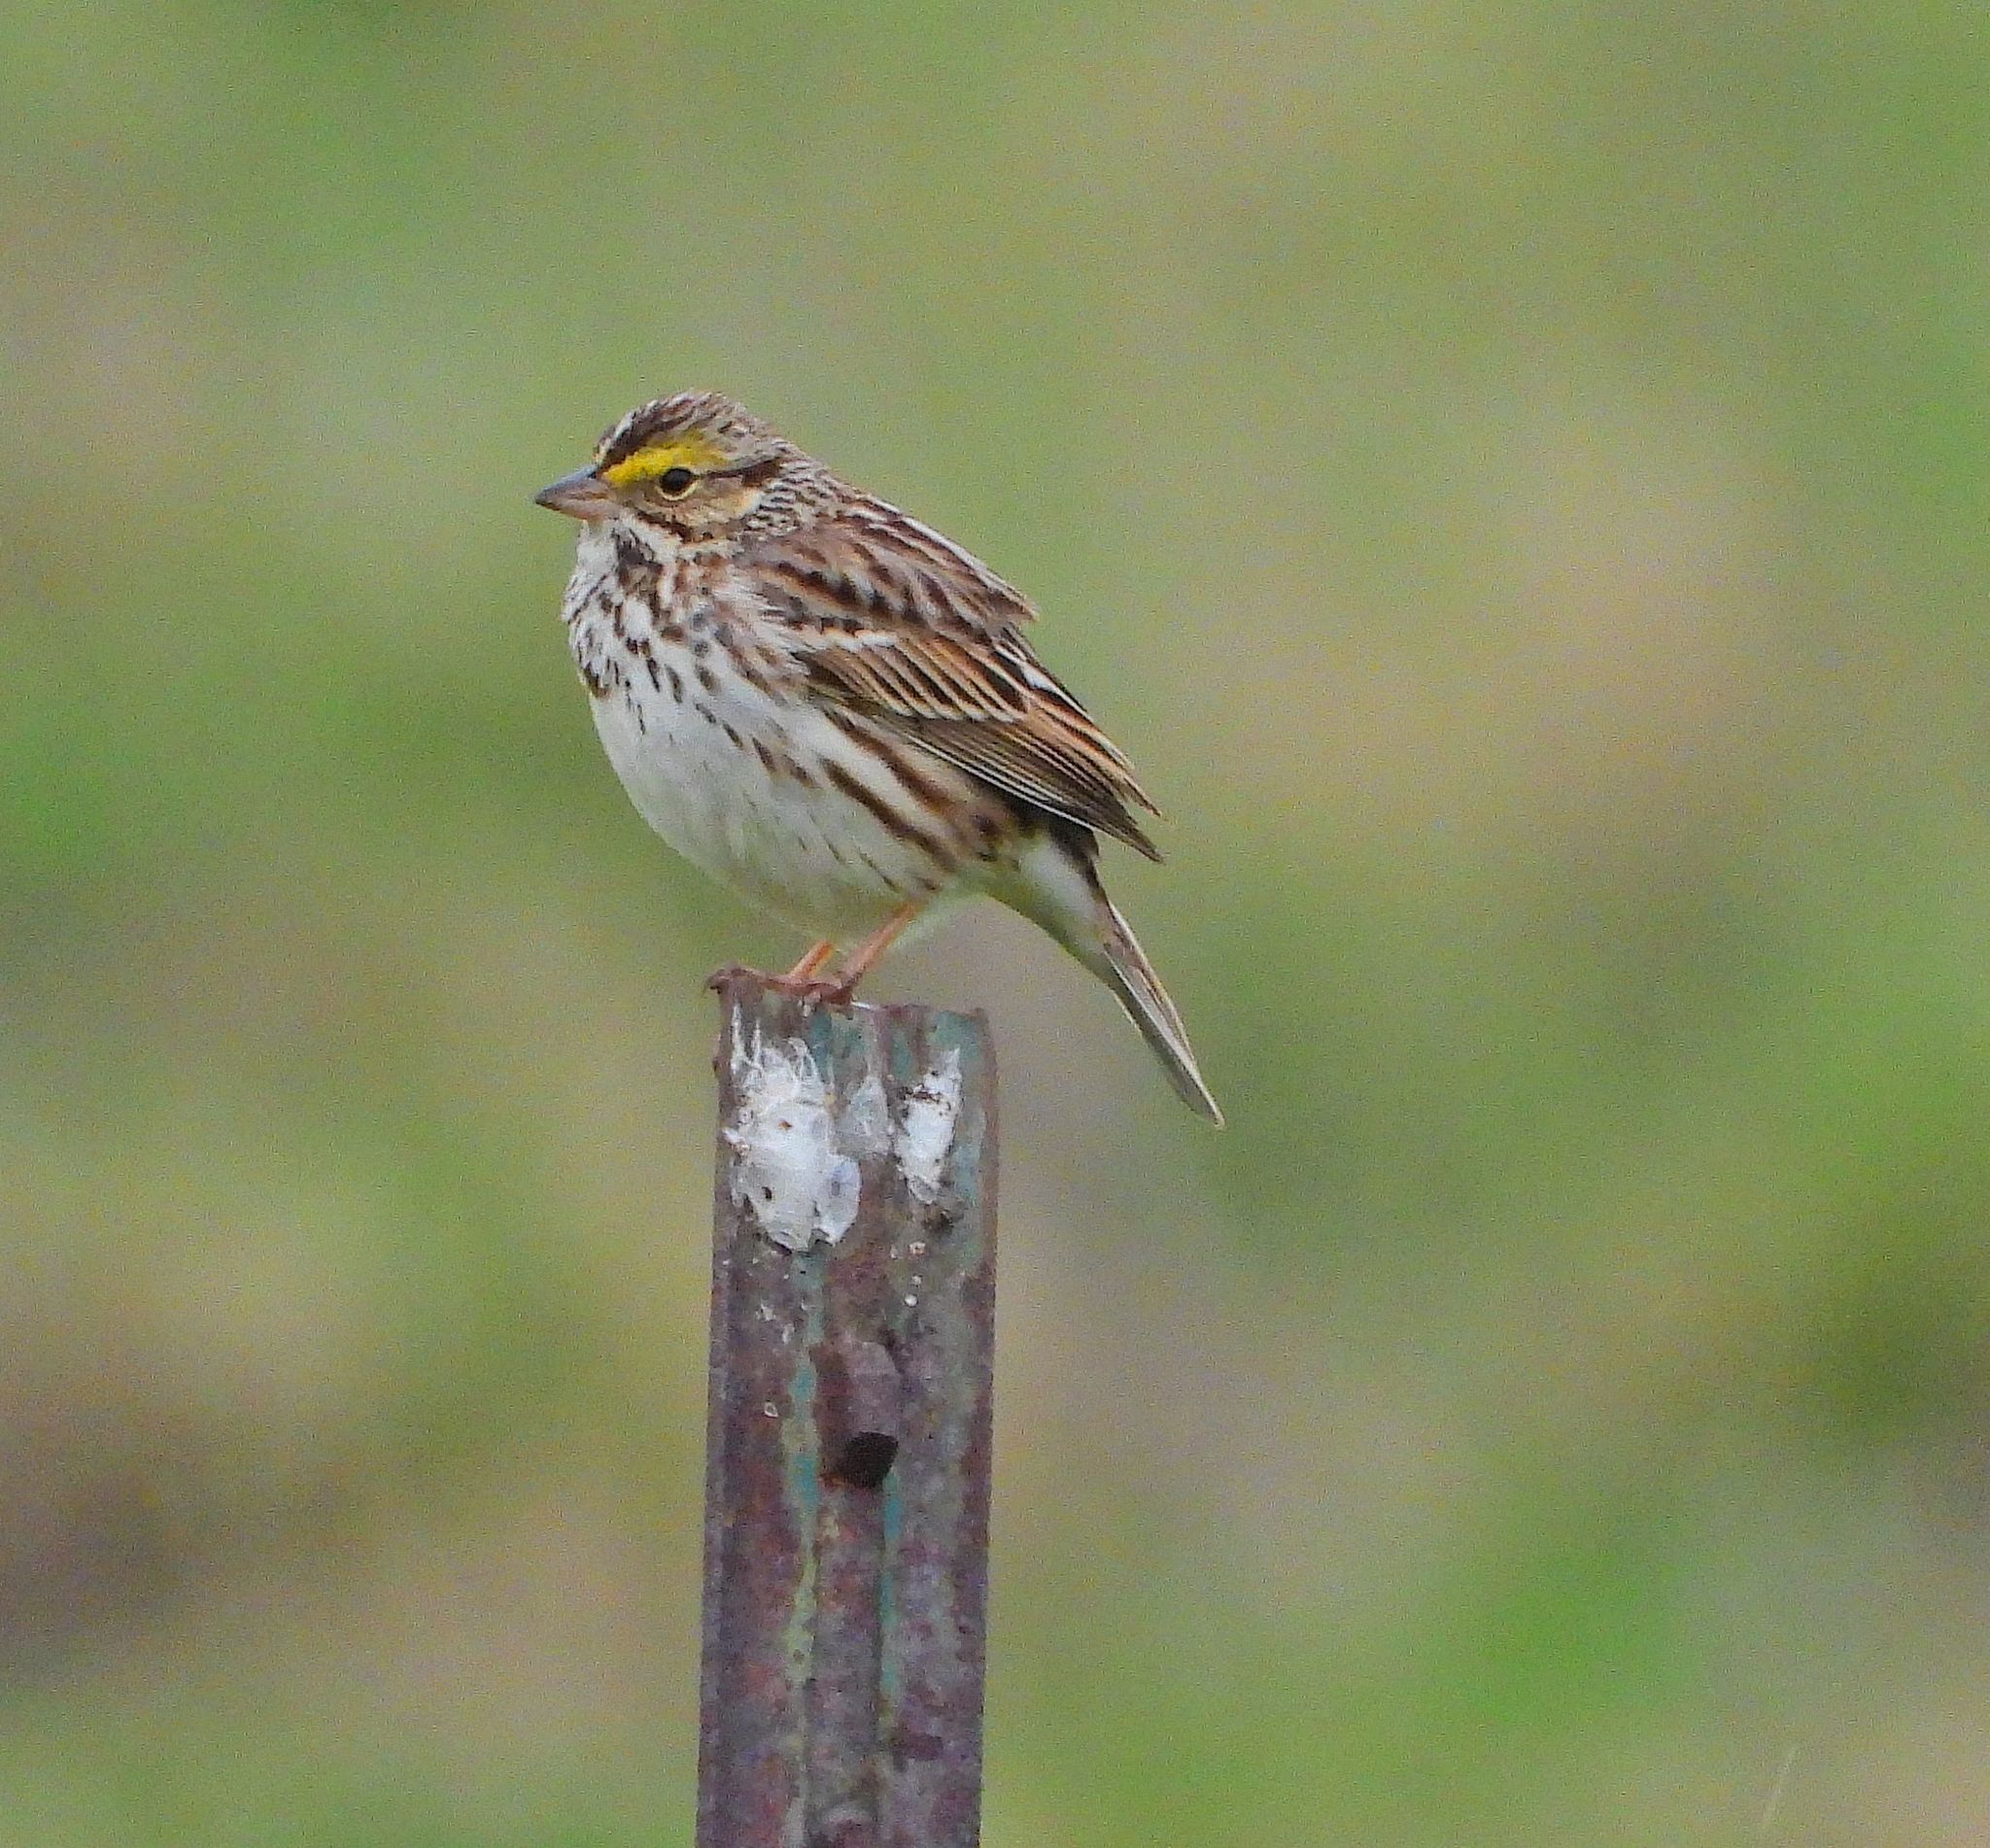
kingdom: Animalia
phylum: Chordata
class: Aves
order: Passeriformes
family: Passerellidae
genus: Passerculus
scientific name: Passerculus sandwichensis
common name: Savannah sparrow
